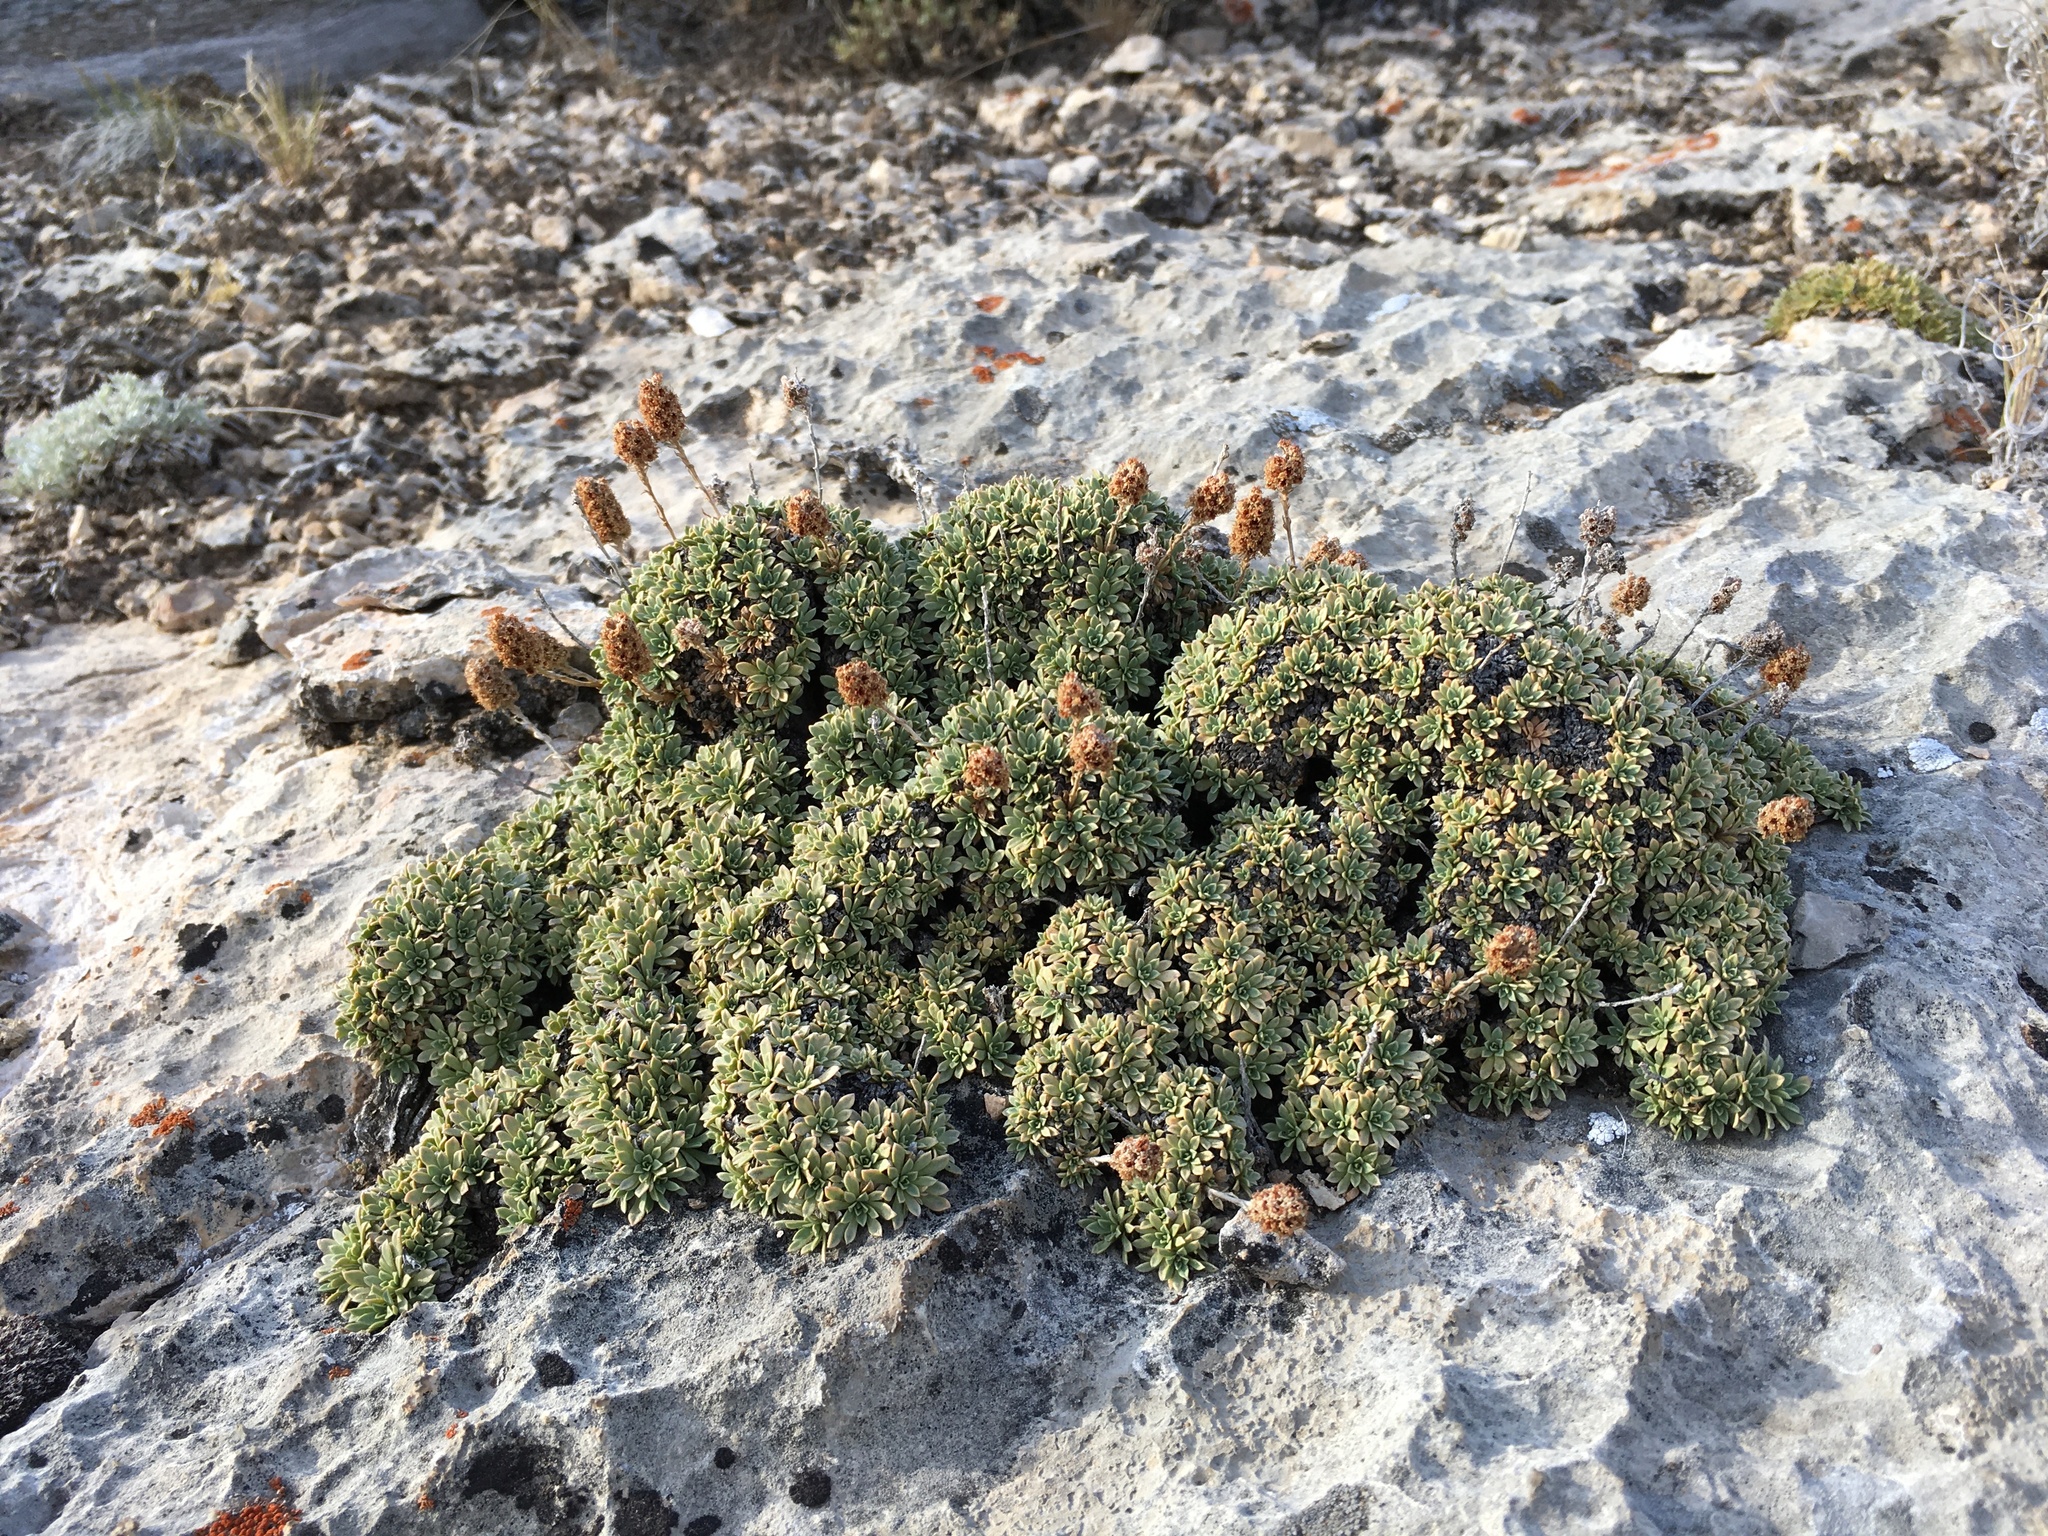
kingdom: Plantae
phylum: Tracheophyta
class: Magnoliopsida
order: Rosales
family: Rosaceae
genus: Petrophytum
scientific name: Petrophytum caespitosum
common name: Mat rockspirea
